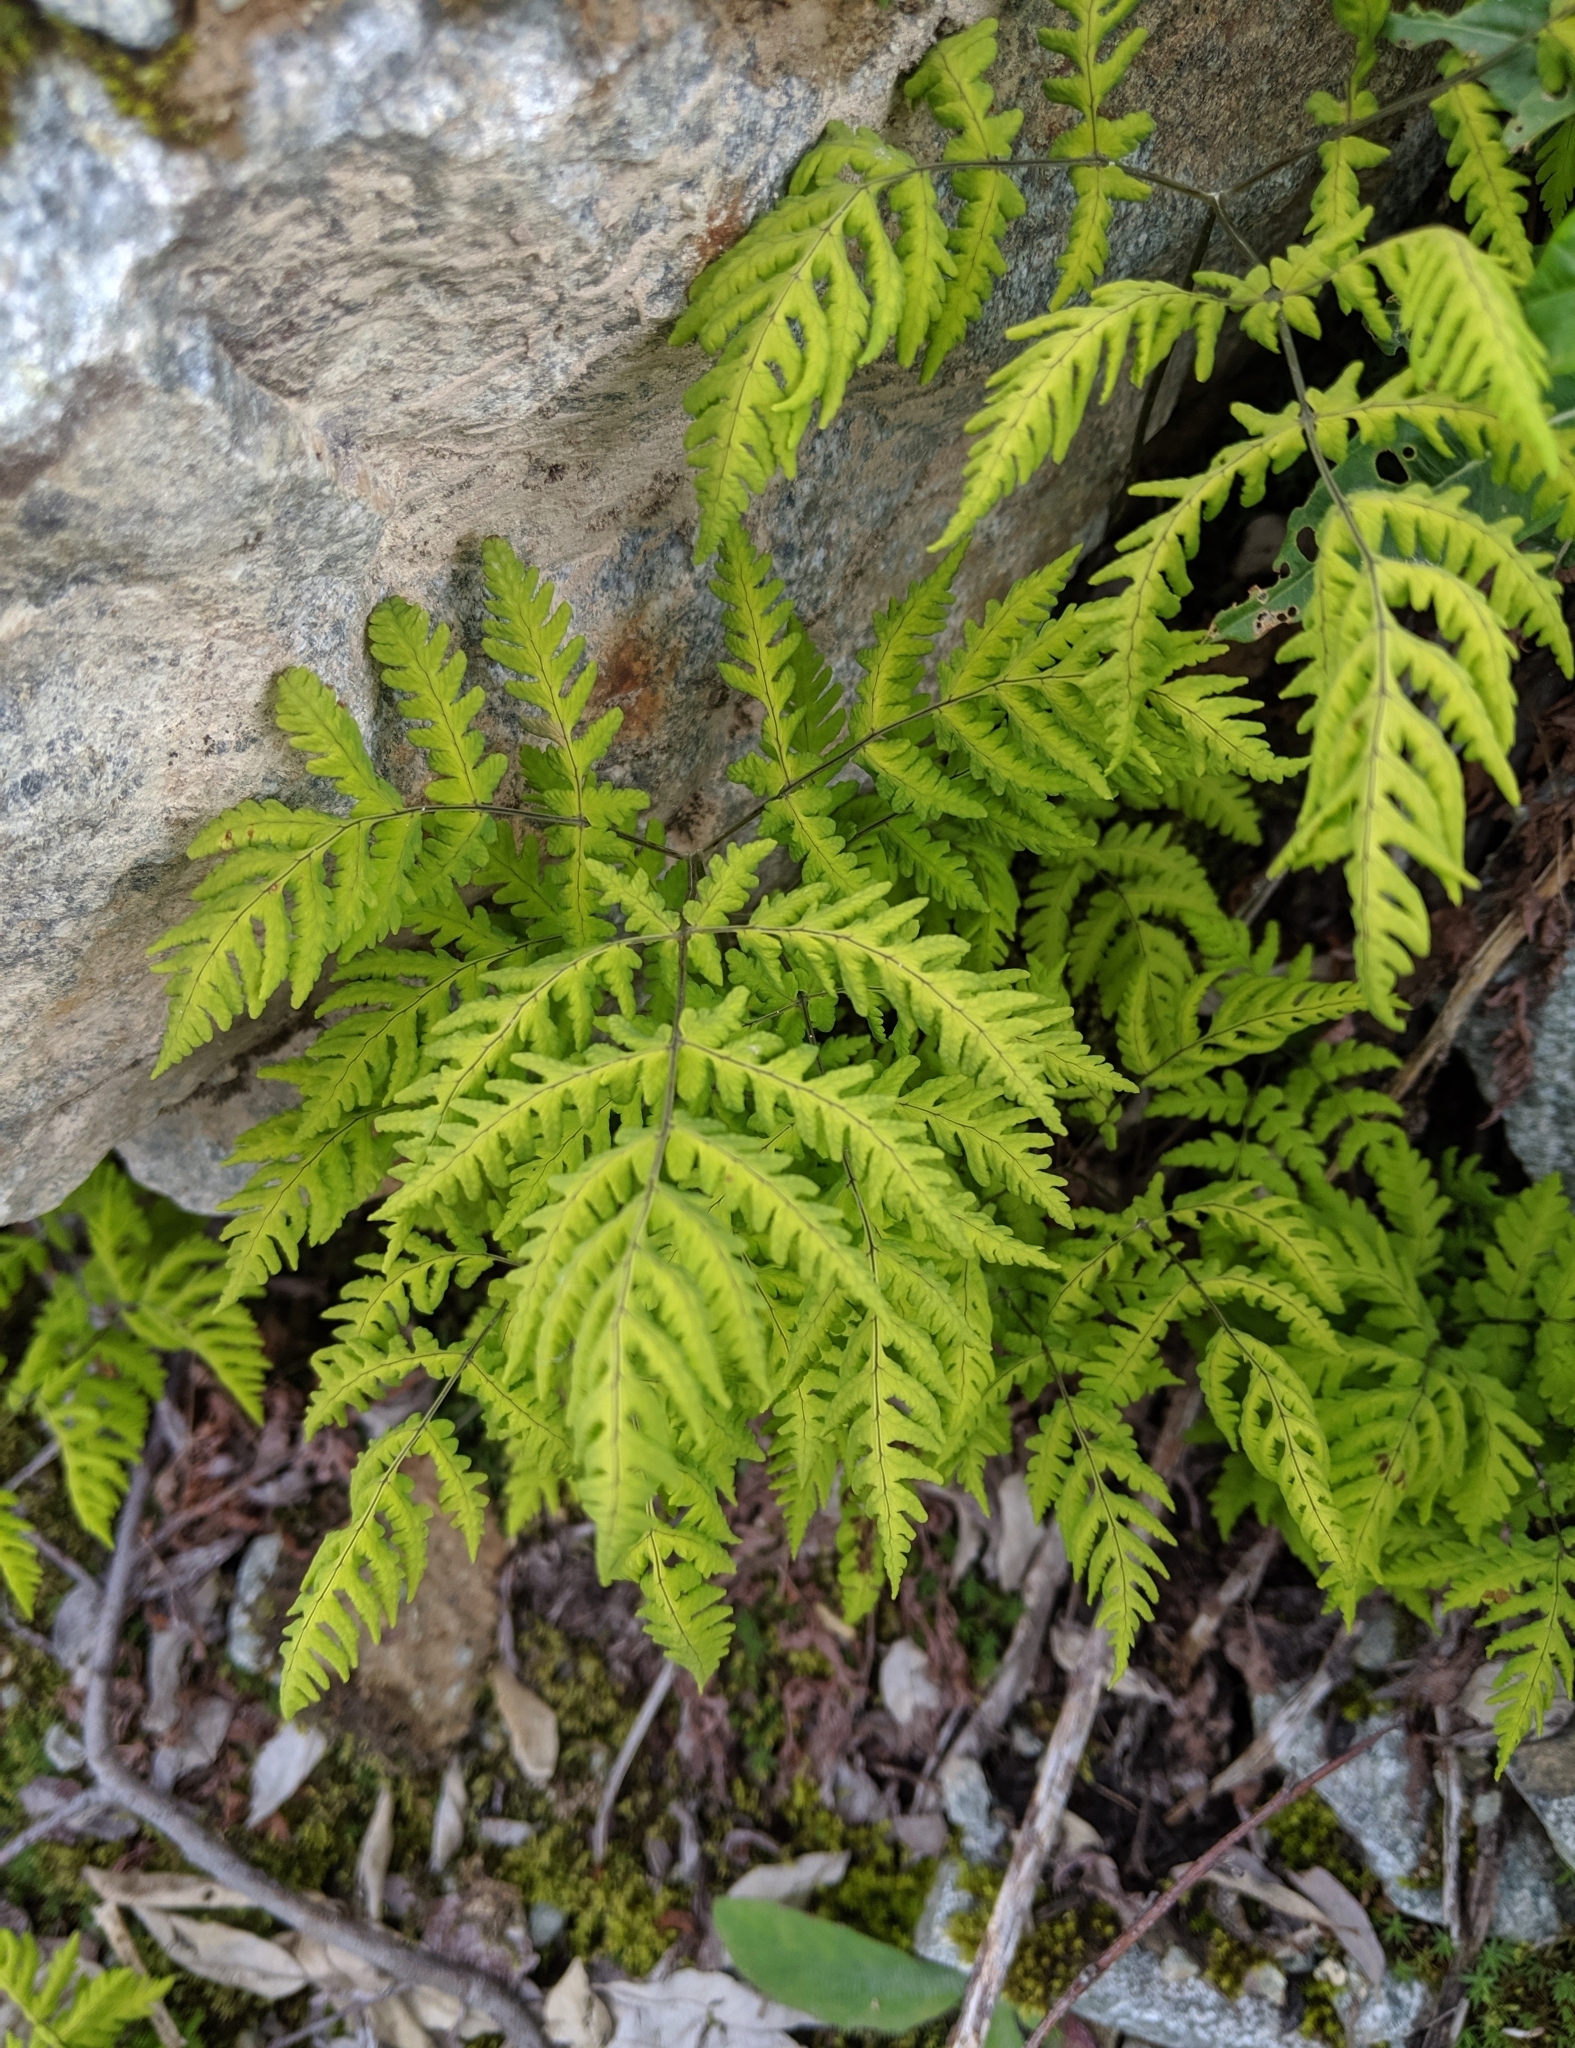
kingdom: Plantae
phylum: Tracheophyta
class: Polypodiopsida
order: Polypodiales
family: Cystopteridaceae
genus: Gymnocarpium
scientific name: Gymnocarpium dryopteris
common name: Oak fern
